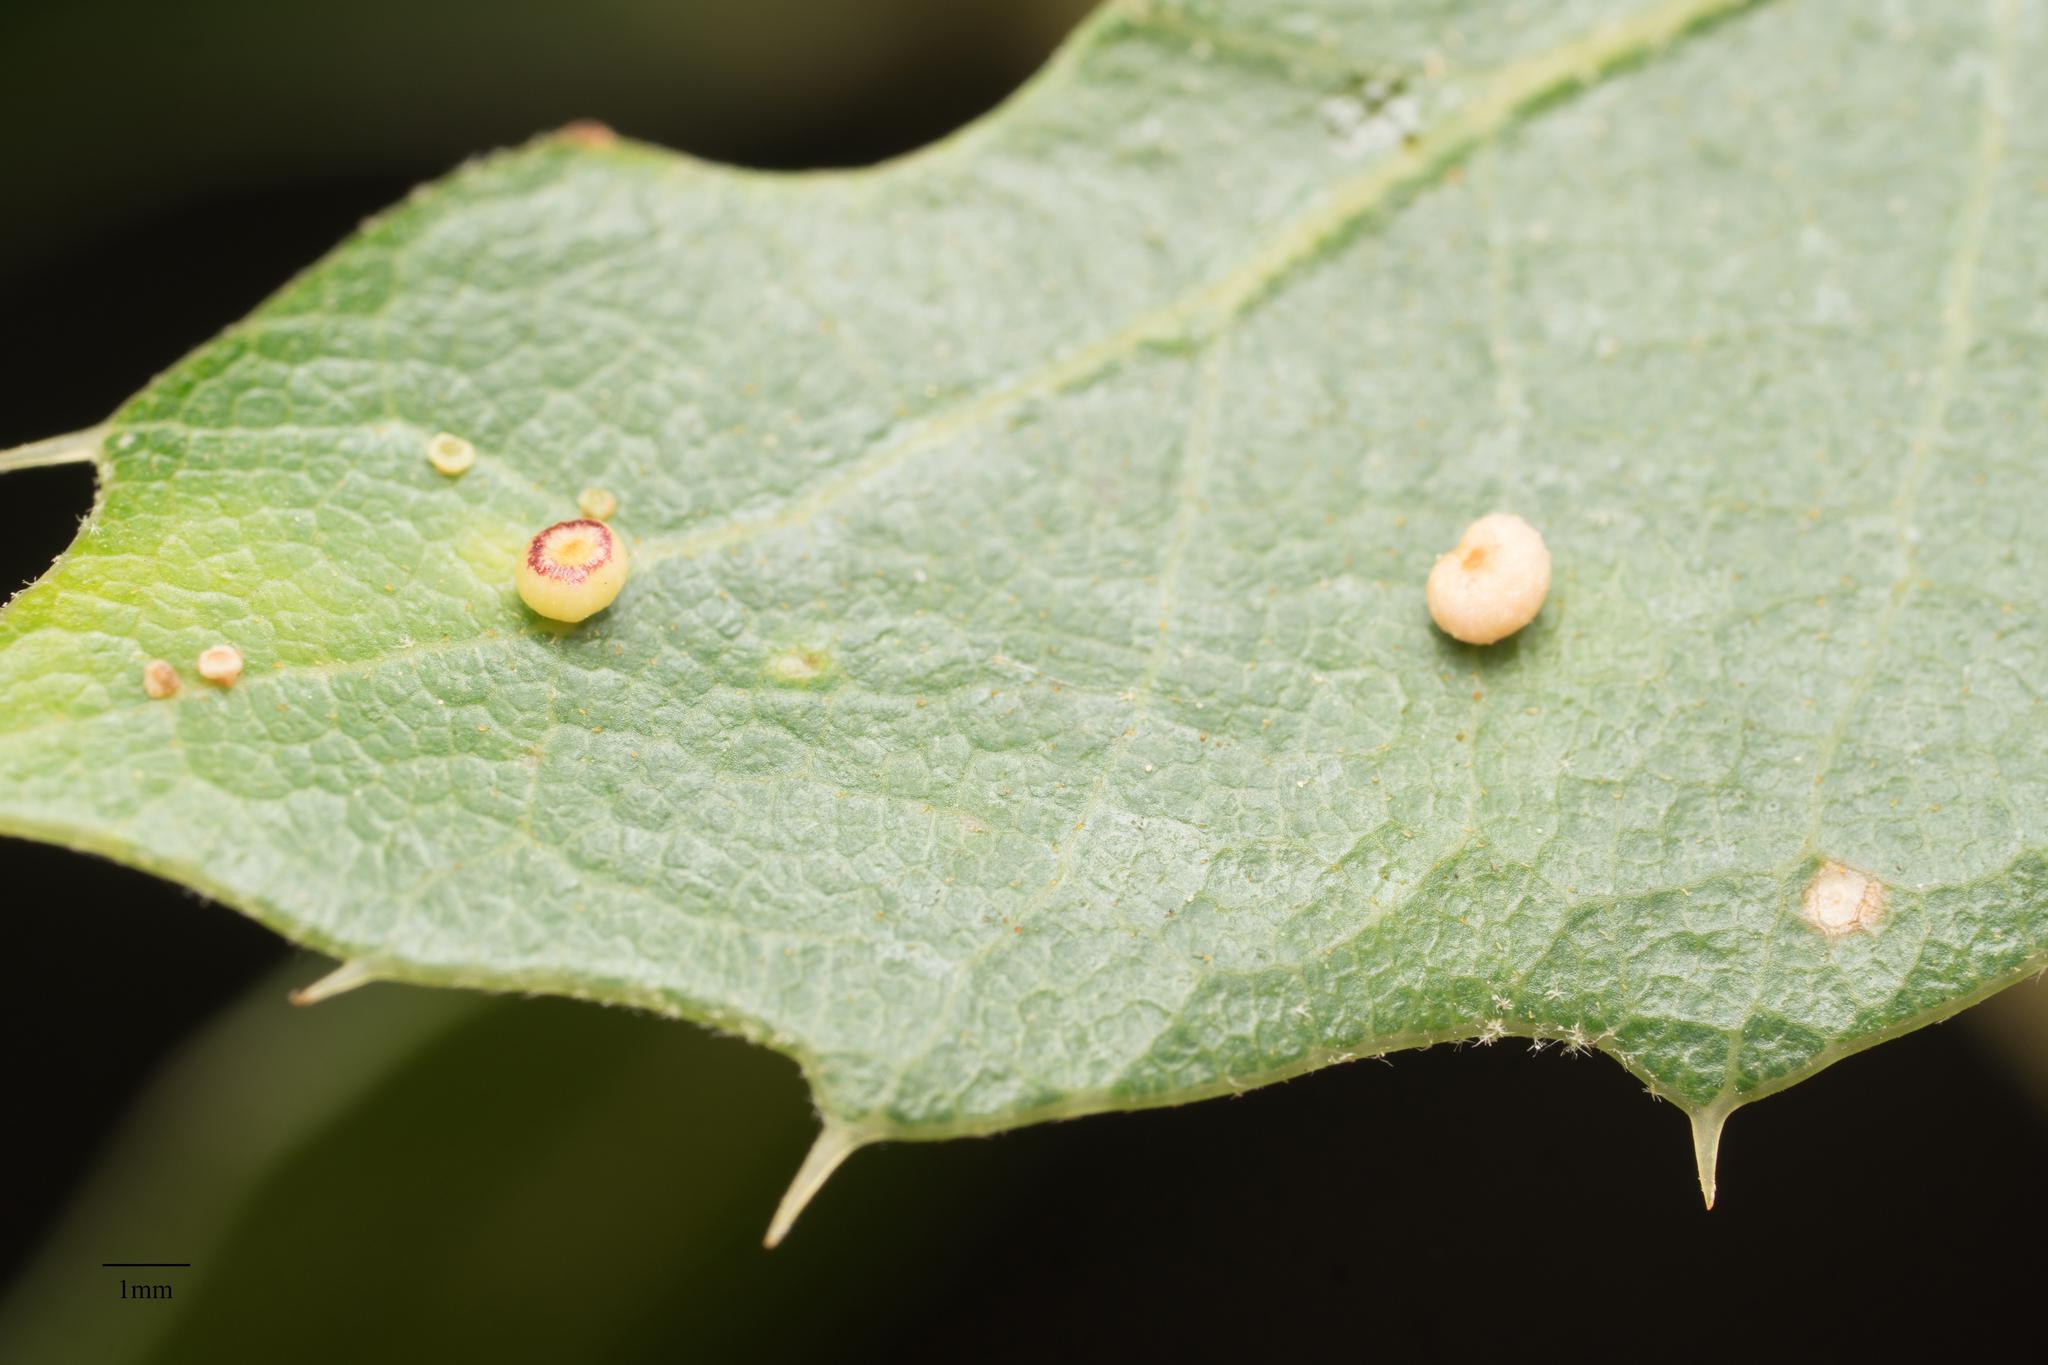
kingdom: Animalia
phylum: Arthropoda
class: Insecta
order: Hymenoptera
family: Cynipidae
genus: Dryocosmus
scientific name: Dryocosmus
